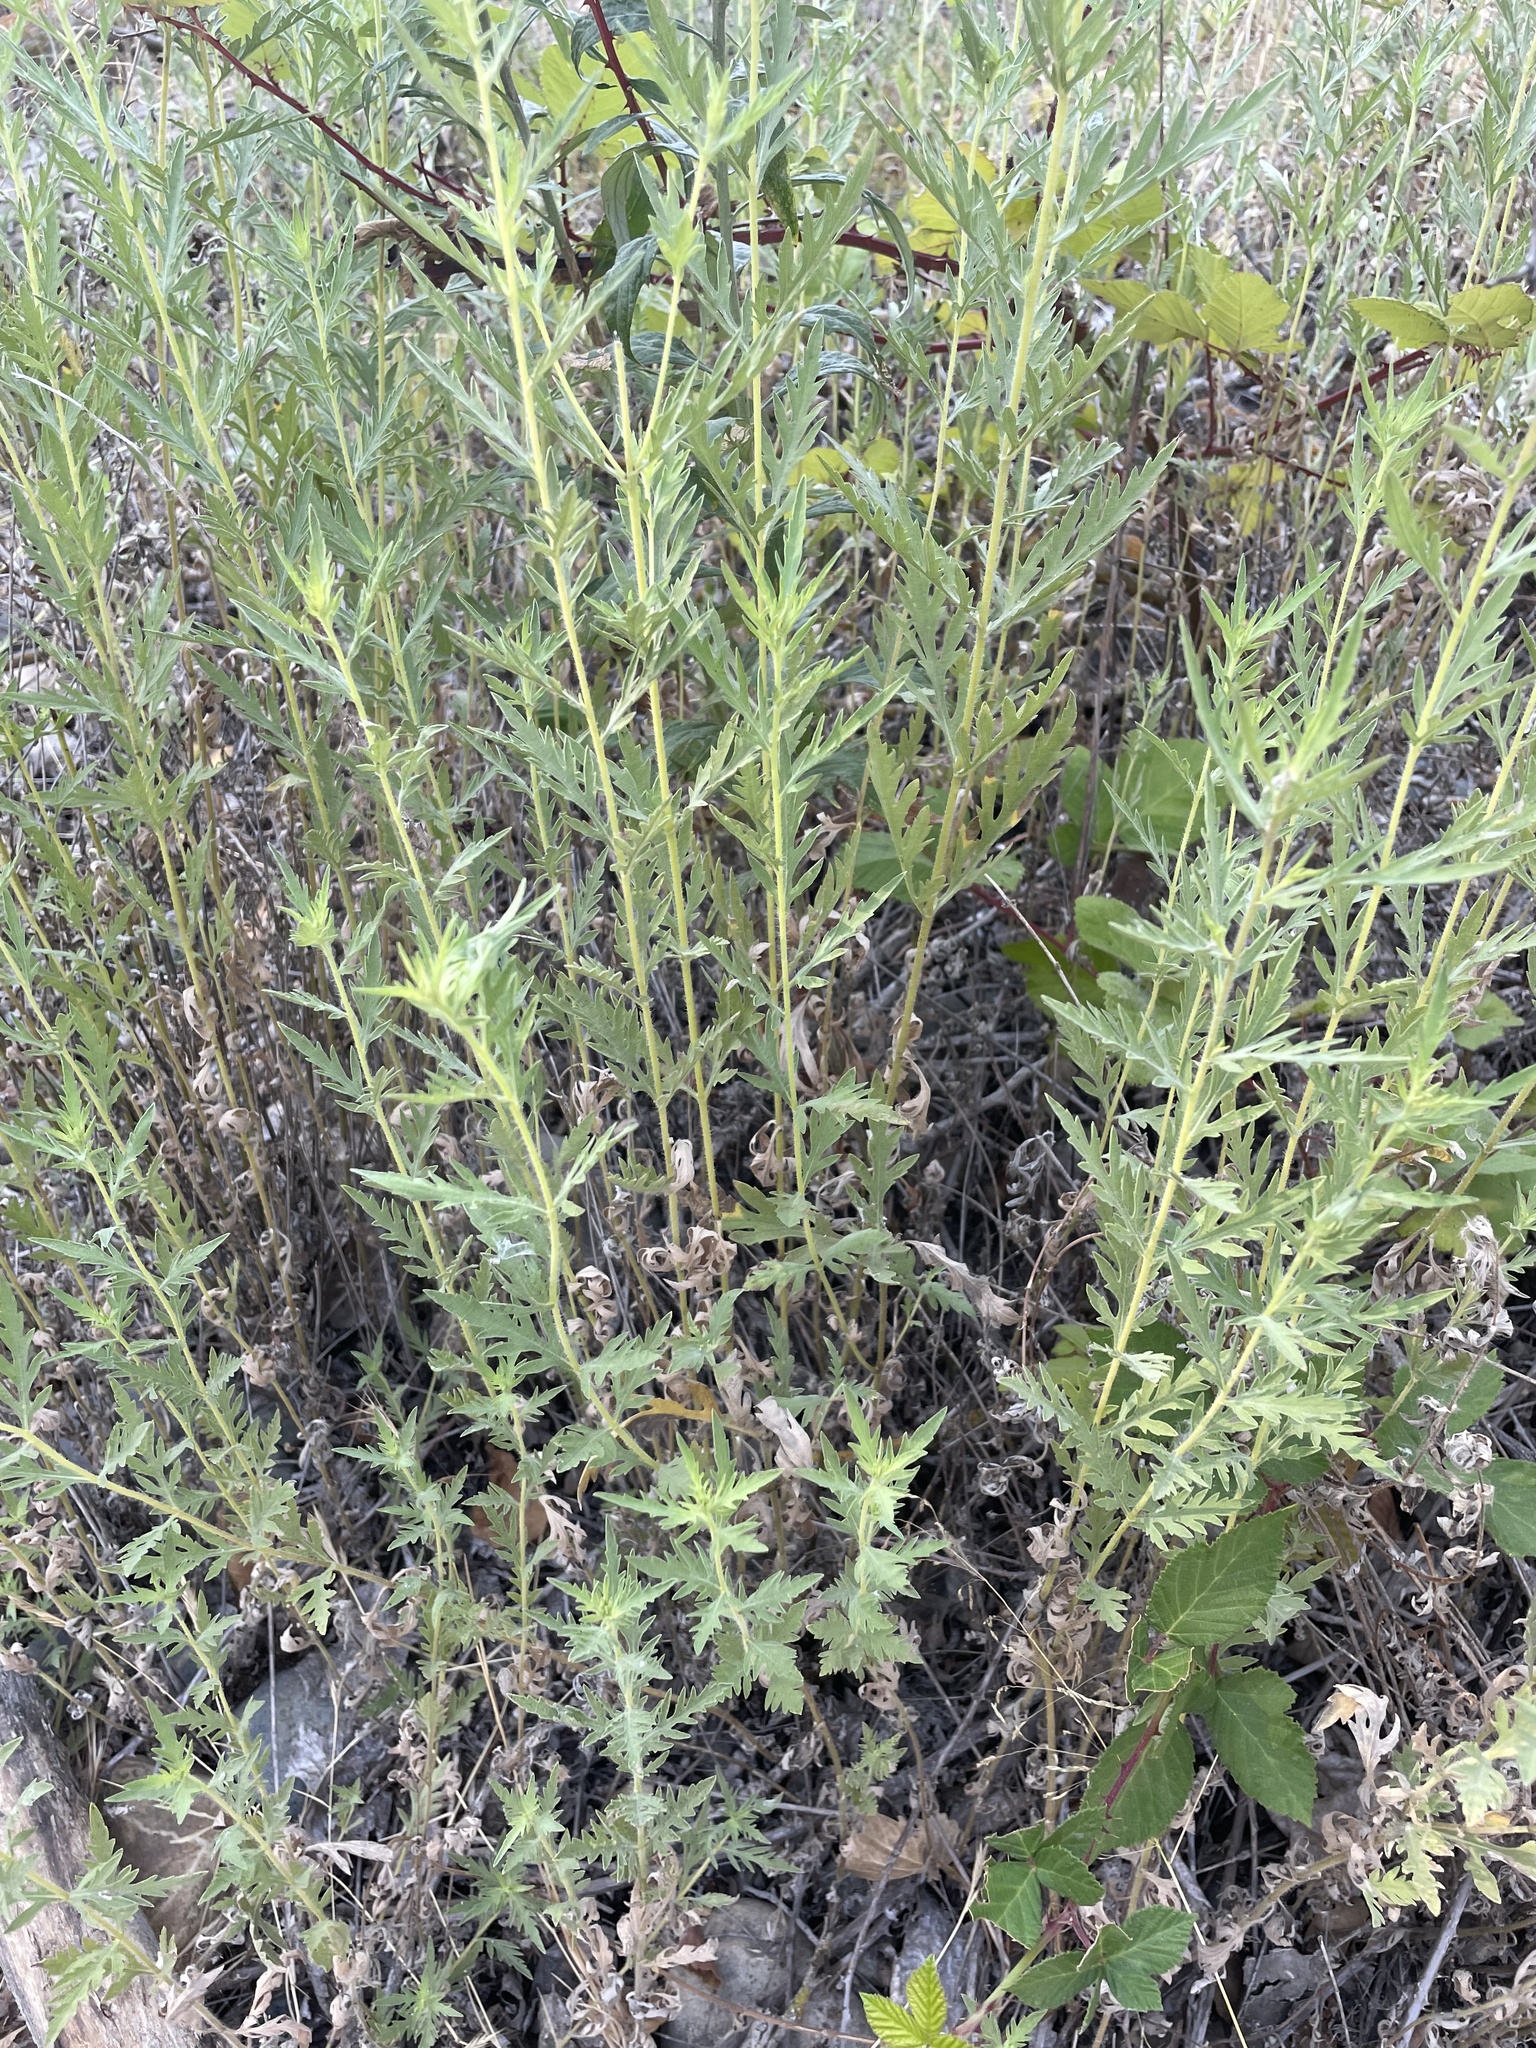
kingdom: Plantae
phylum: Tracheophyta
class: Magnoliopsida
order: Asterales
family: Asteraceae
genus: Ambrosia
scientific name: Ambrosia psilostachya
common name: Perennial ragweed
